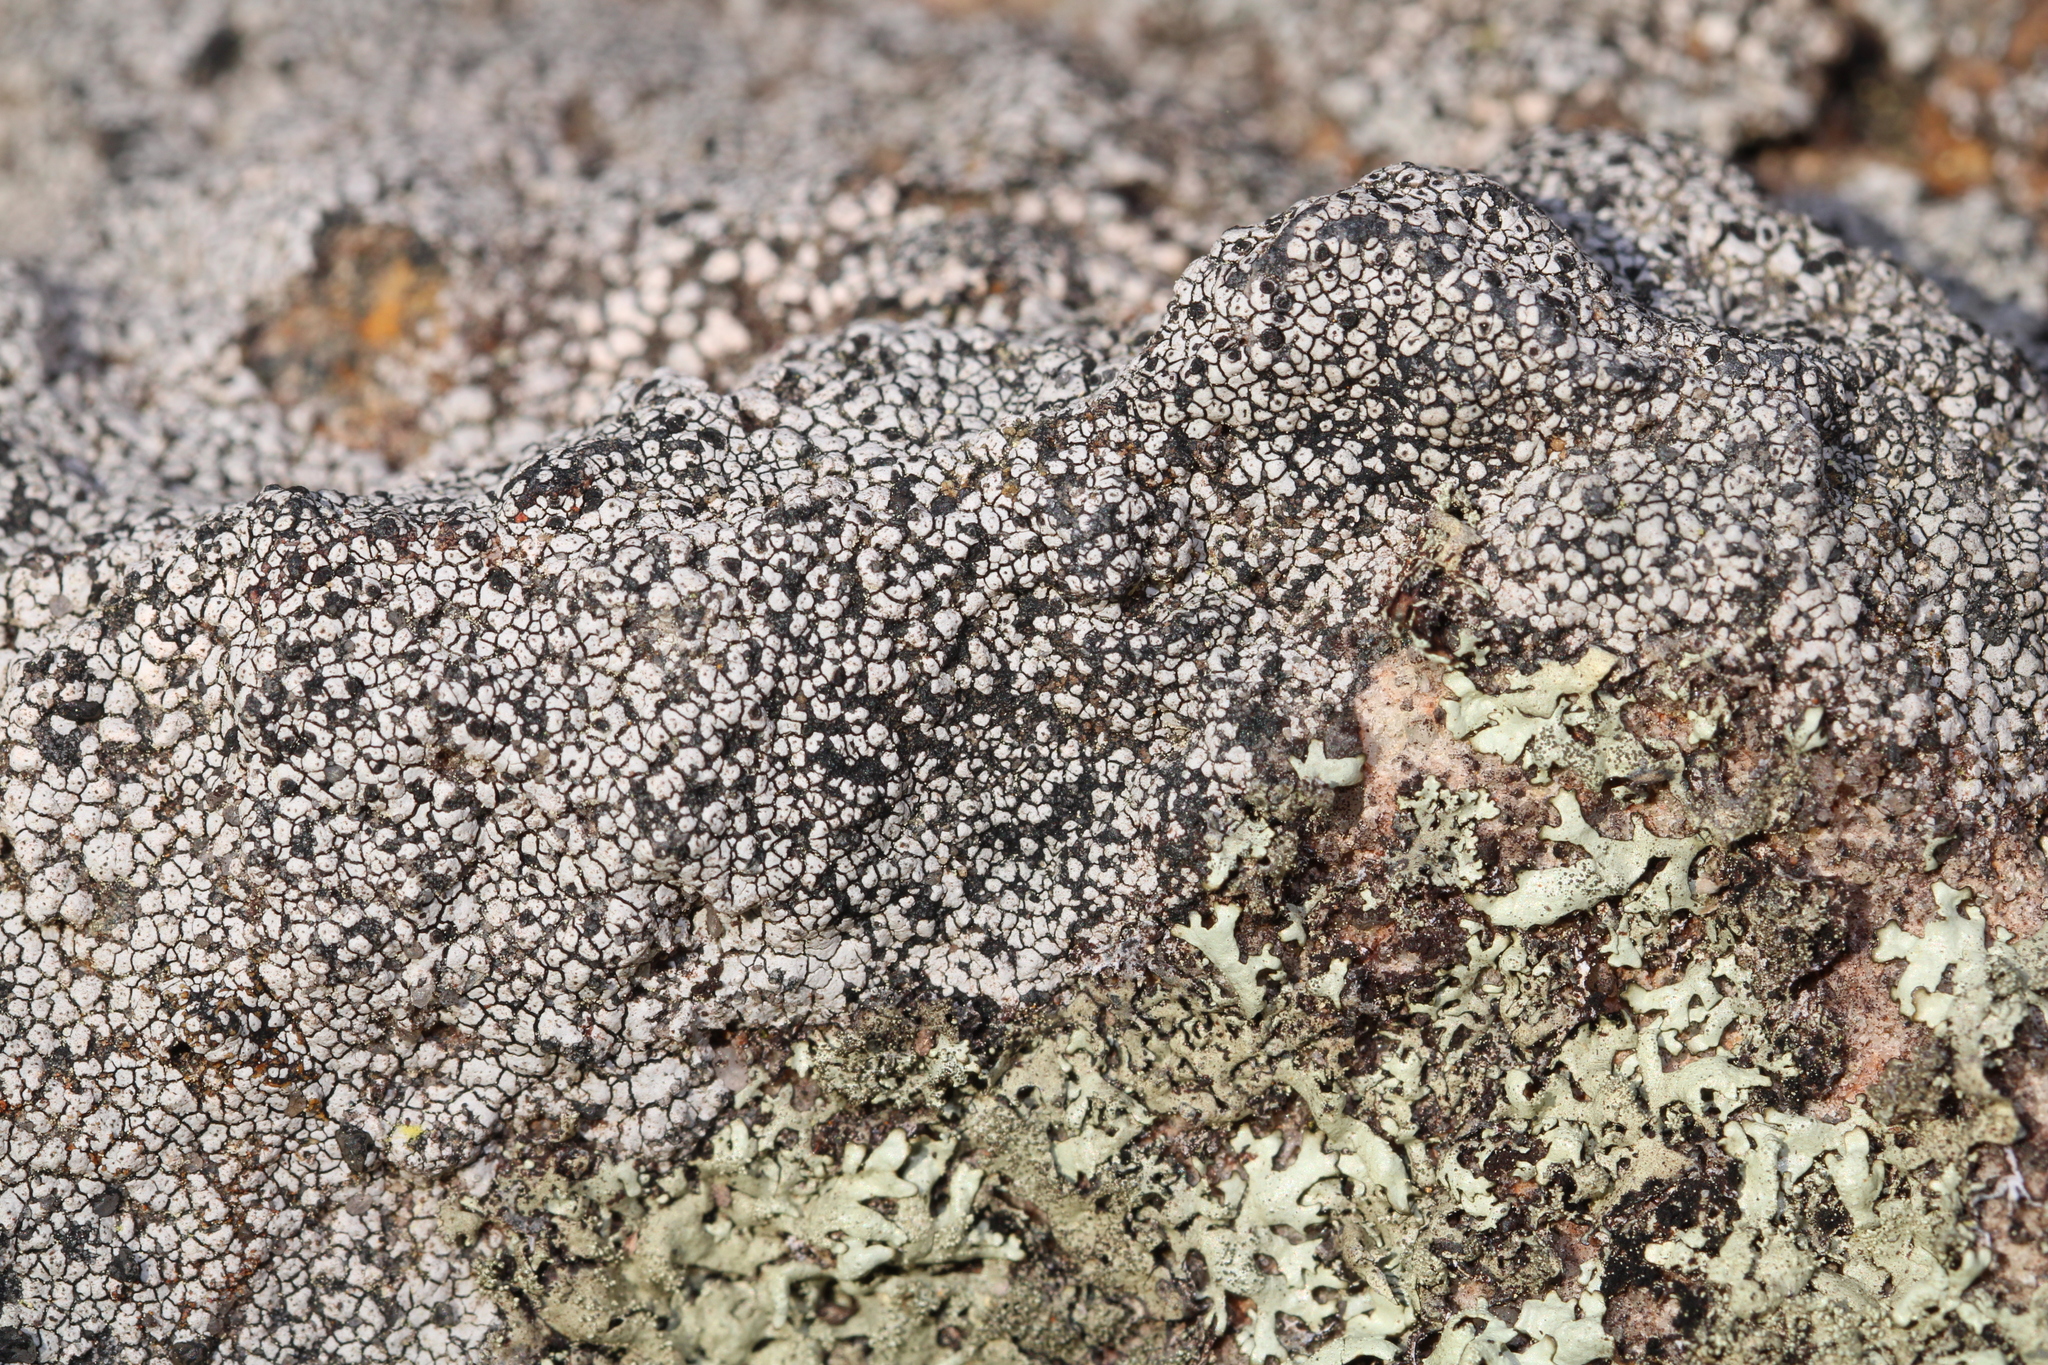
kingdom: Fungi
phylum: Ascomycota
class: Lecanoromycetes
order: Caliciales
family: Caliciaceae
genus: Buellia
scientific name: Buellia spuria
